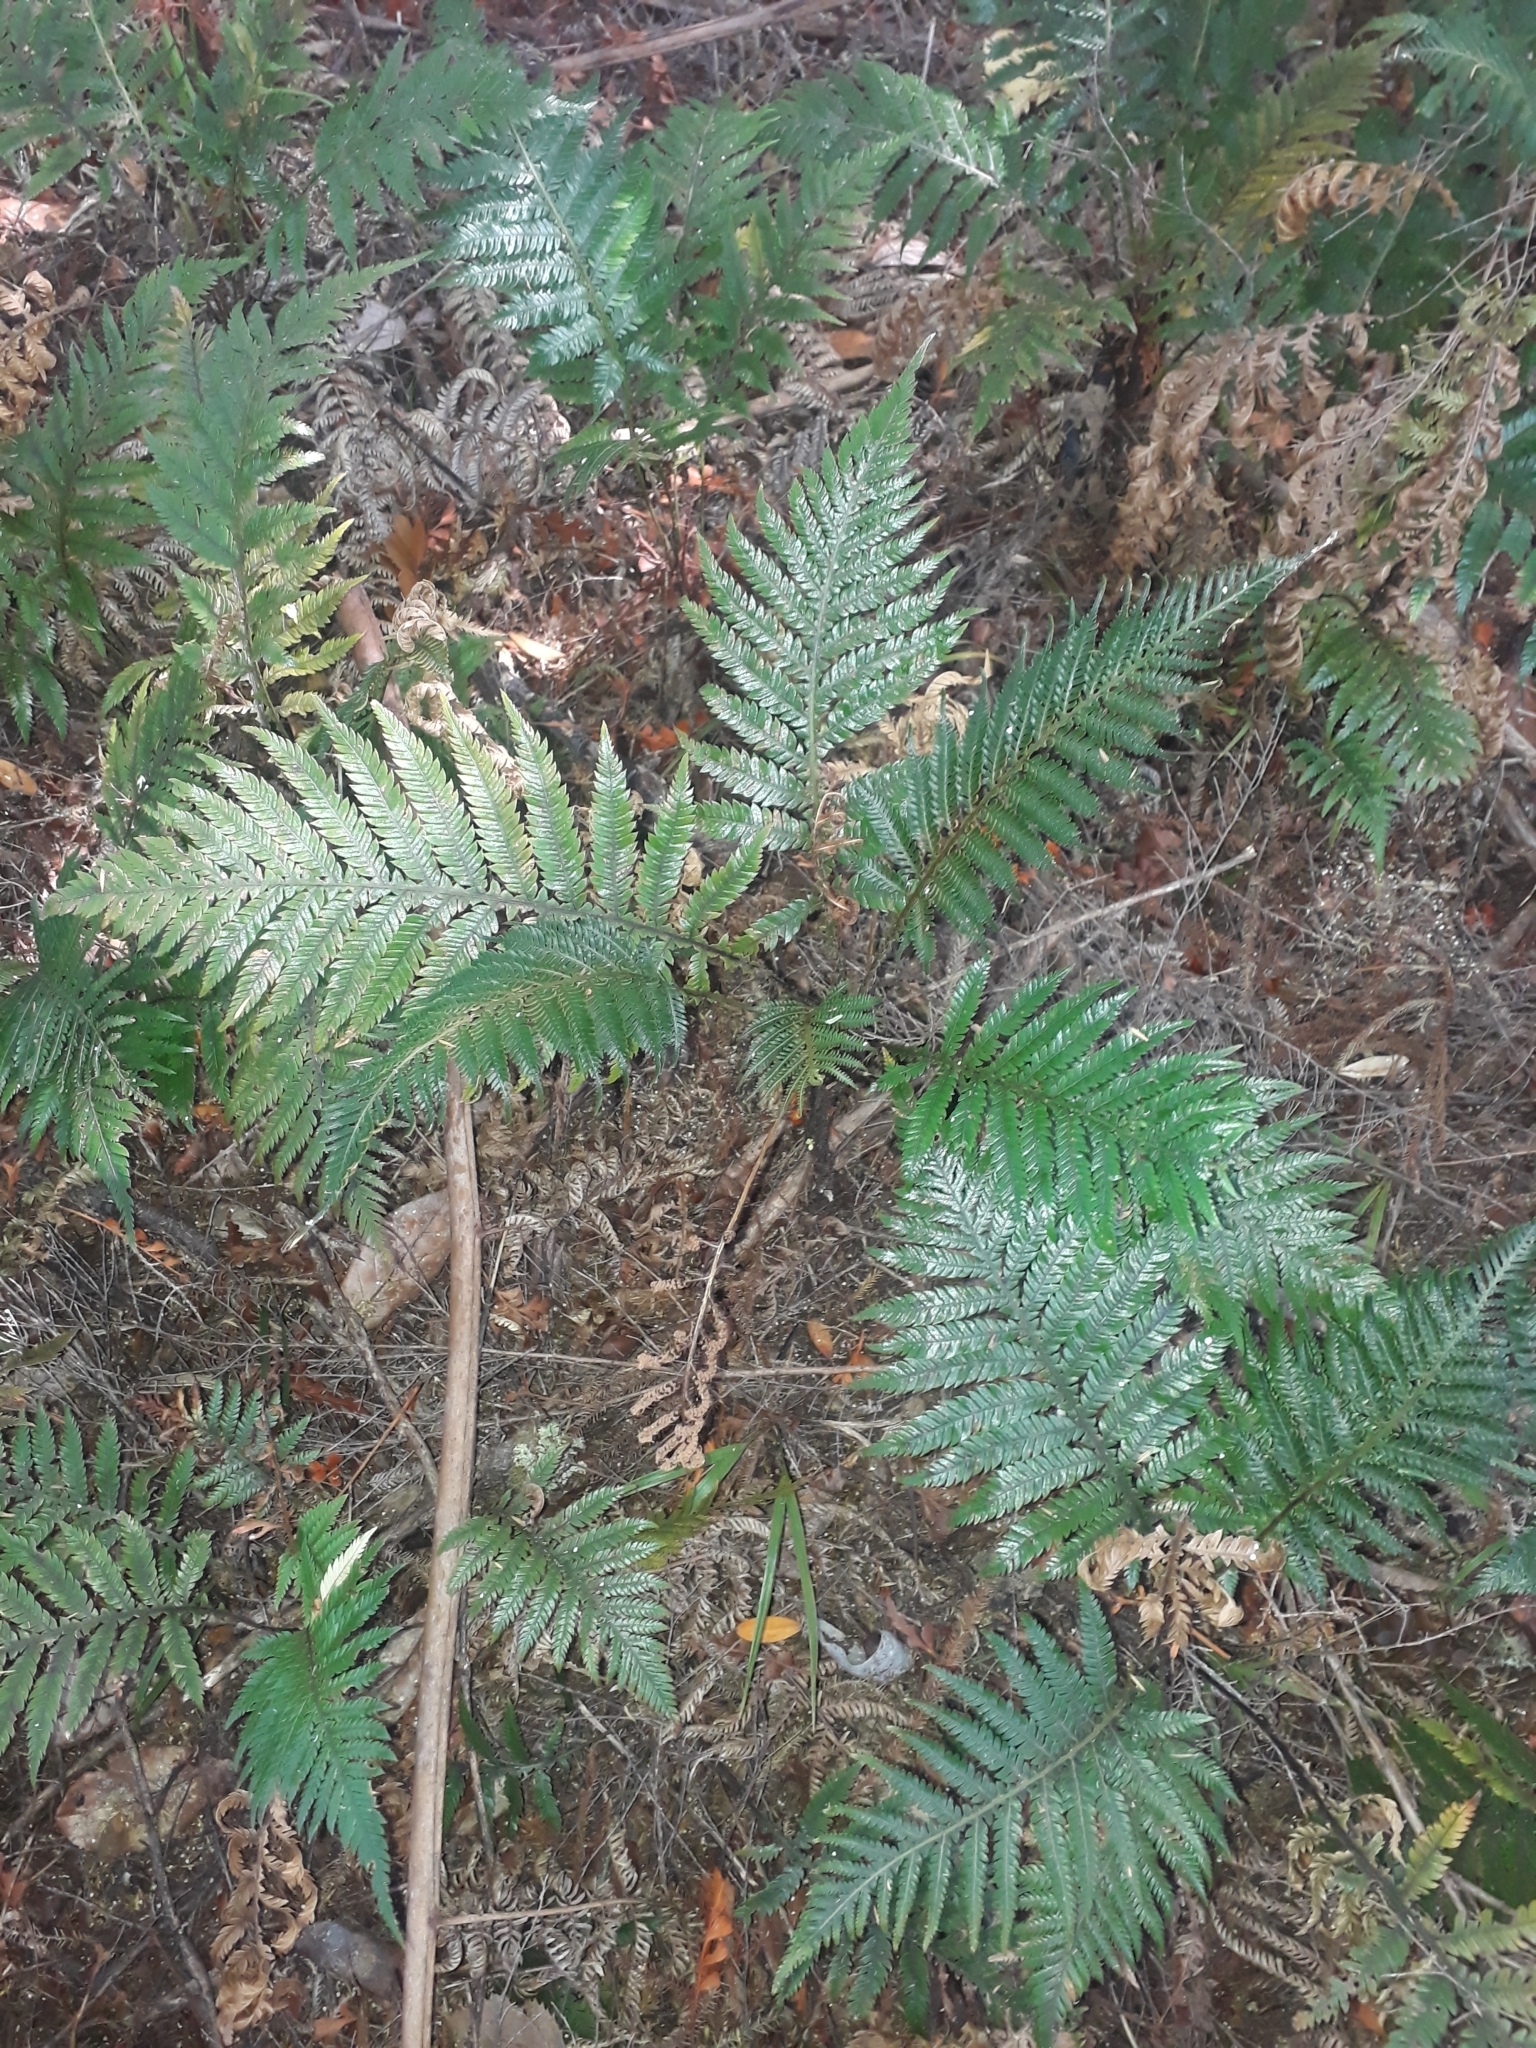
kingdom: Plantae
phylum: Tracheophyta
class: Polypodiopsida
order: Polypodiales
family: Blechnaceae
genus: Diploblechnum
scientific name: Diploblechnum fraseri
